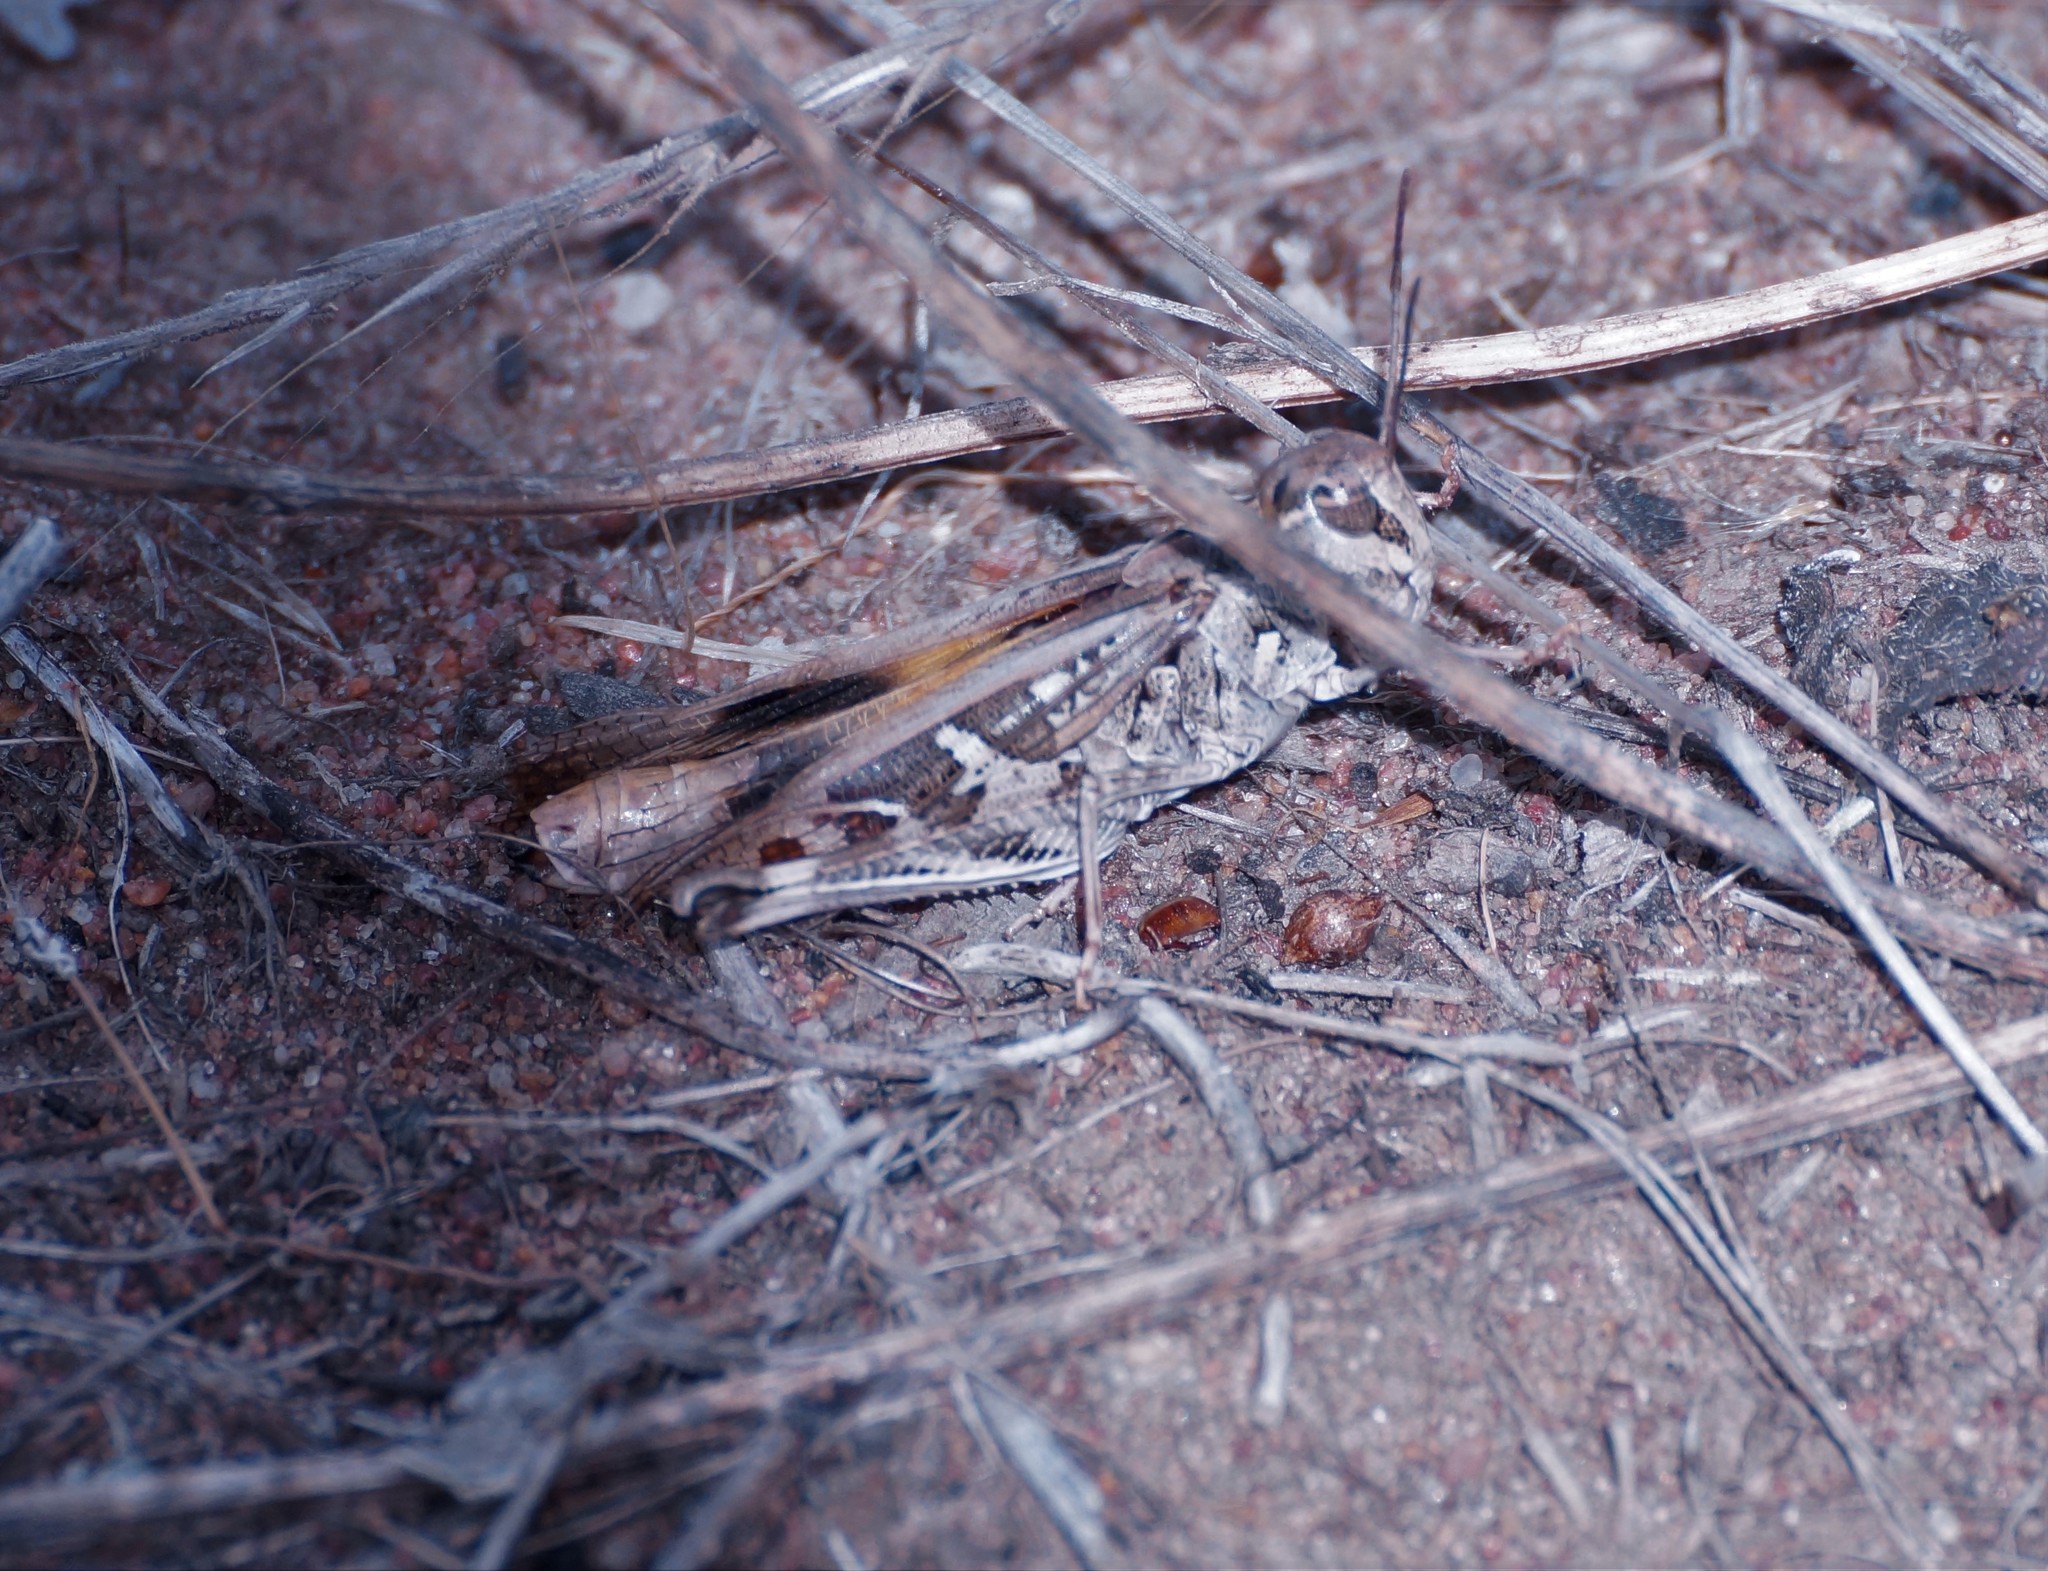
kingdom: Animalia
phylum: Arthropoda
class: Insecta
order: Orthoptera
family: Acrididae
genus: Oedaleus
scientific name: Oedaleus australis
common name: Eastern oedaleus
